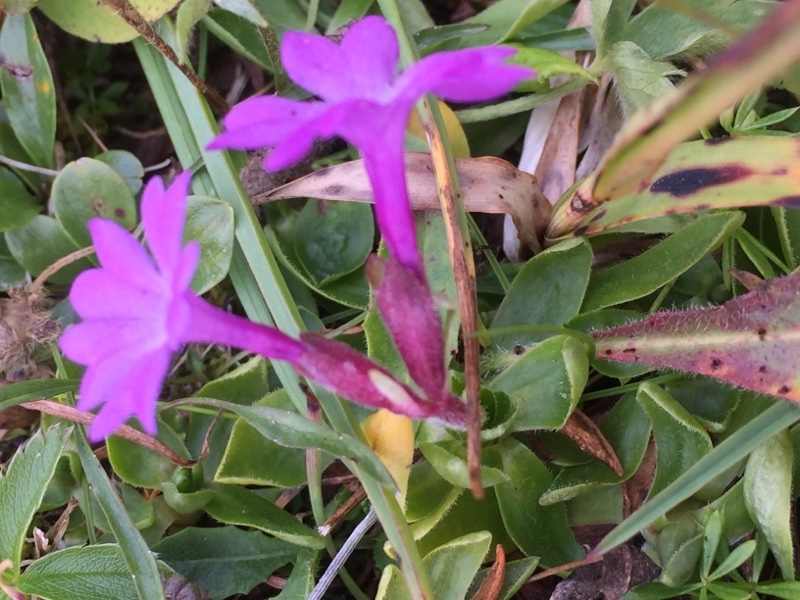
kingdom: Plantae
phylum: Tracheophyta
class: Magnoliopsida
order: Ericales
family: Primulaceae
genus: Primula
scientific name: Primula integrifolia
